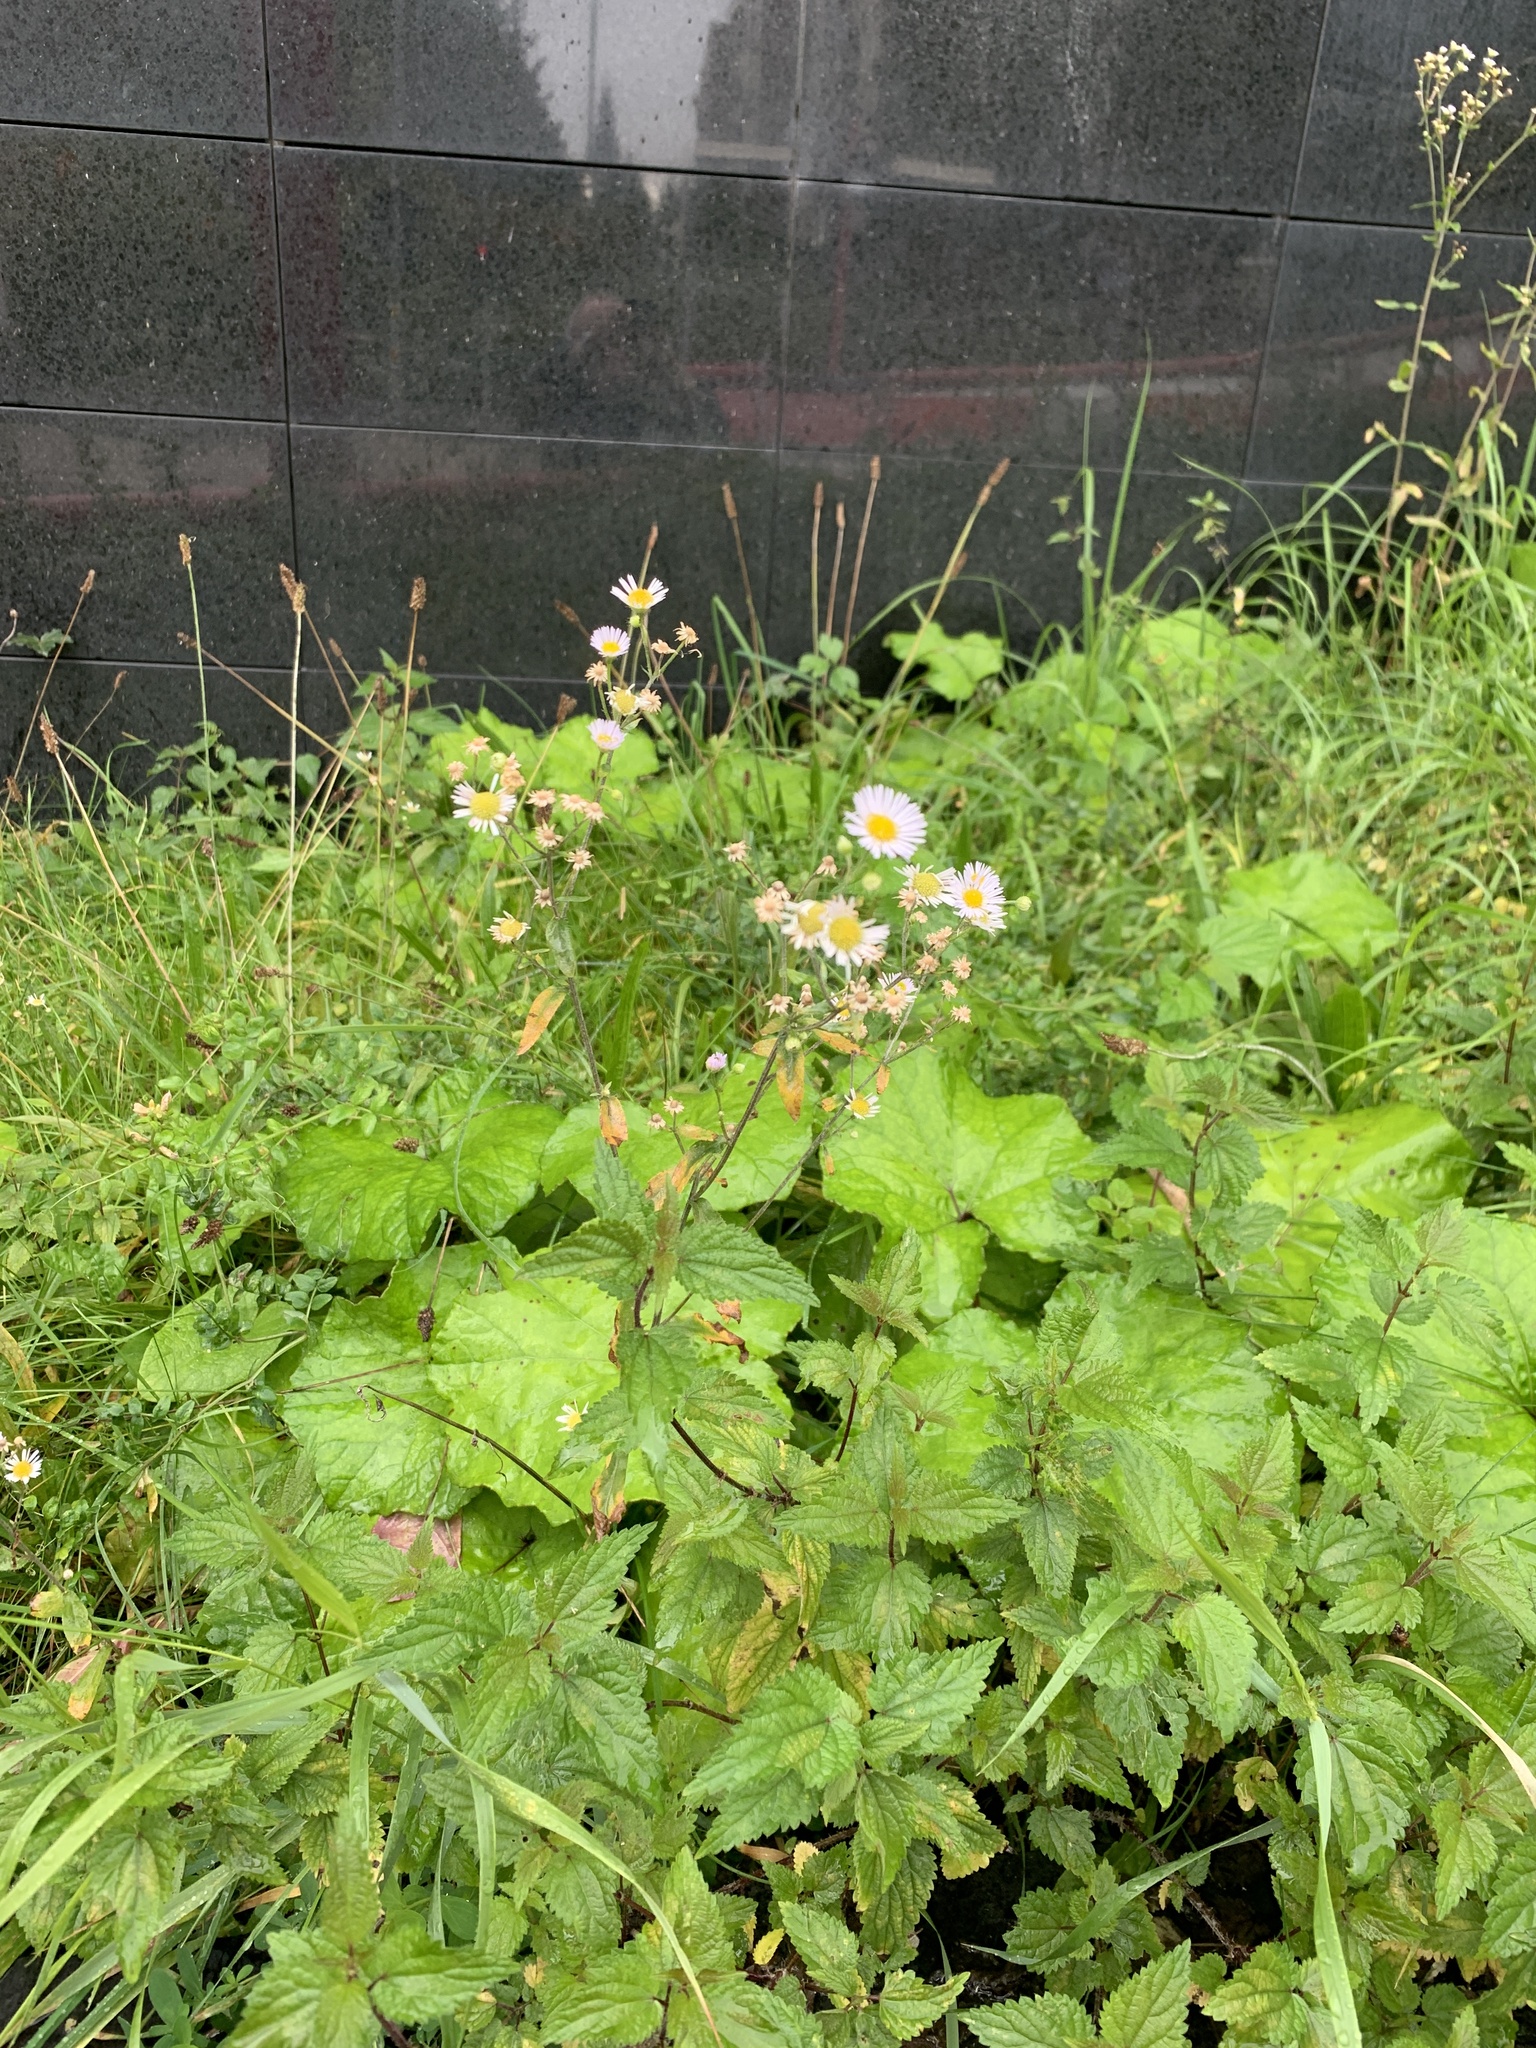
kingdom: Plantae
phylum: Tracheophyta
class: Magnoliopsida
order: Asterales
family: Asteraceae
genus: Erigeron
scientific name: Erigeron annuus
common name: Tall fleabane
